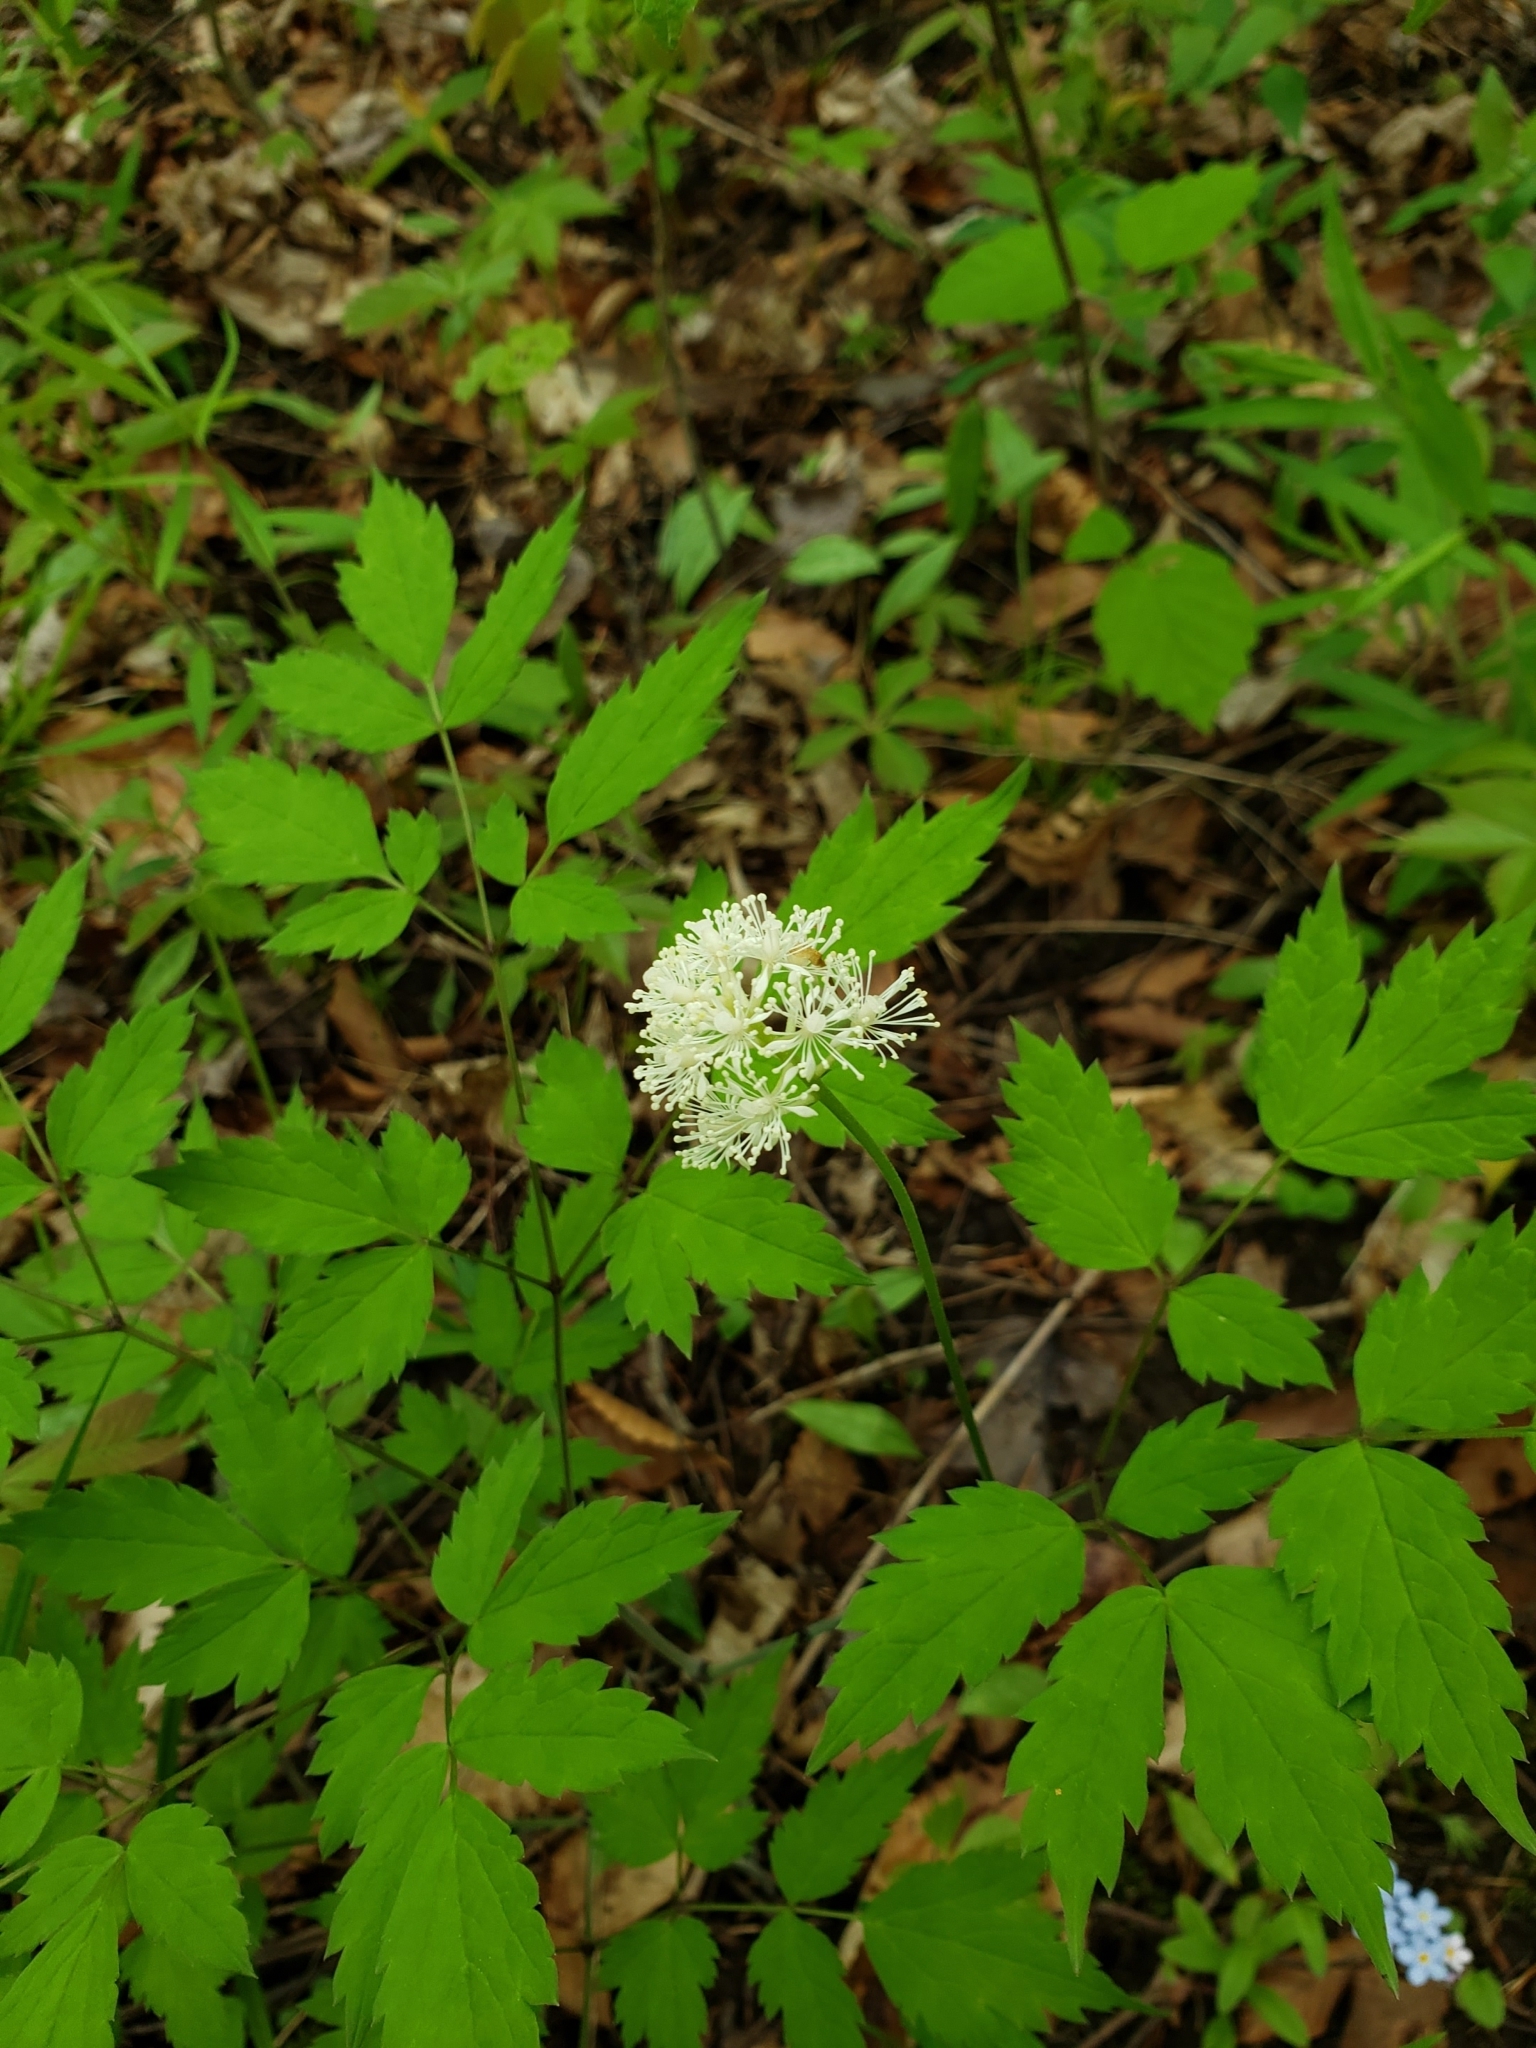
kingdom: Plantae
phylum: Tracheophyta
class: Magnoliopsida
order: Ranunculales
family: Ranunculaceae
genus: Actaea
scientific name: Actaea pachypoda
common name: Doll's-eyes
